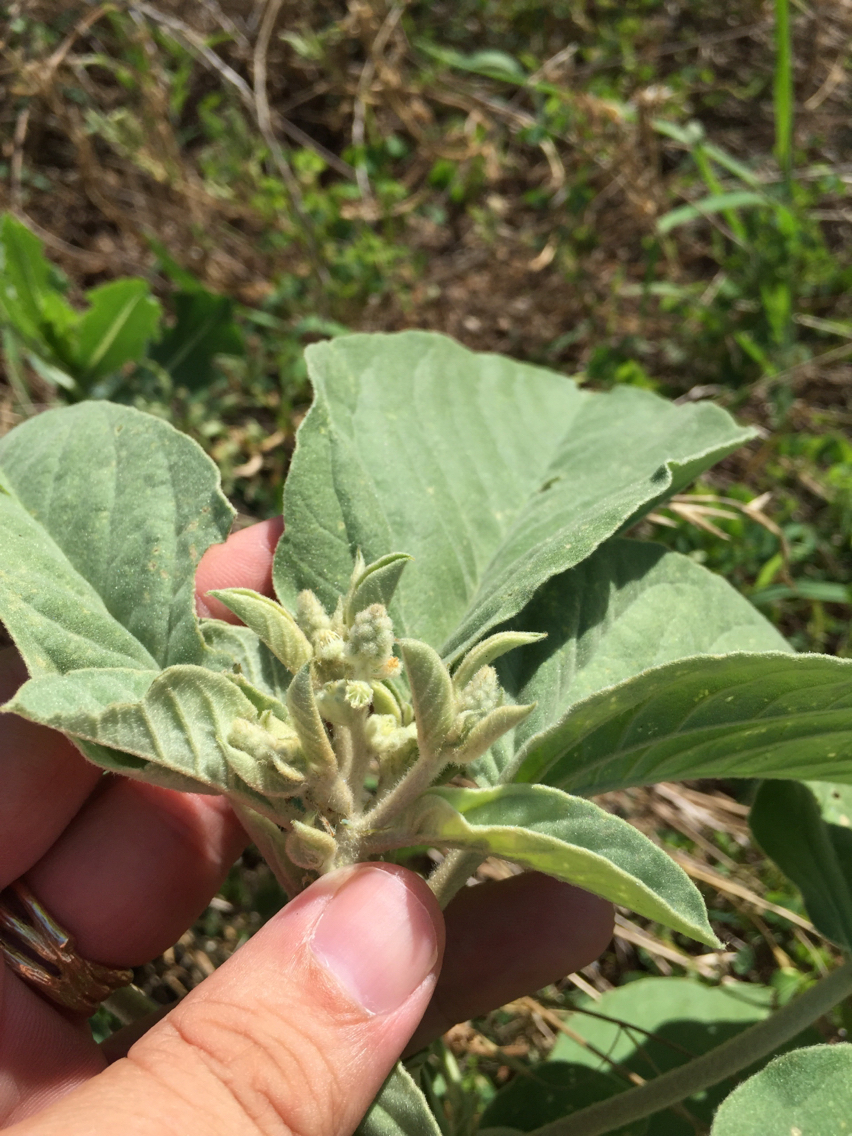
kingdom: Plantae
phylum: Tracheophyta
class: Magnoliopsida
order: Malpighiales
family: Euphorbiaceae
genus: Croton
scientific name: Croton lindheimeri
